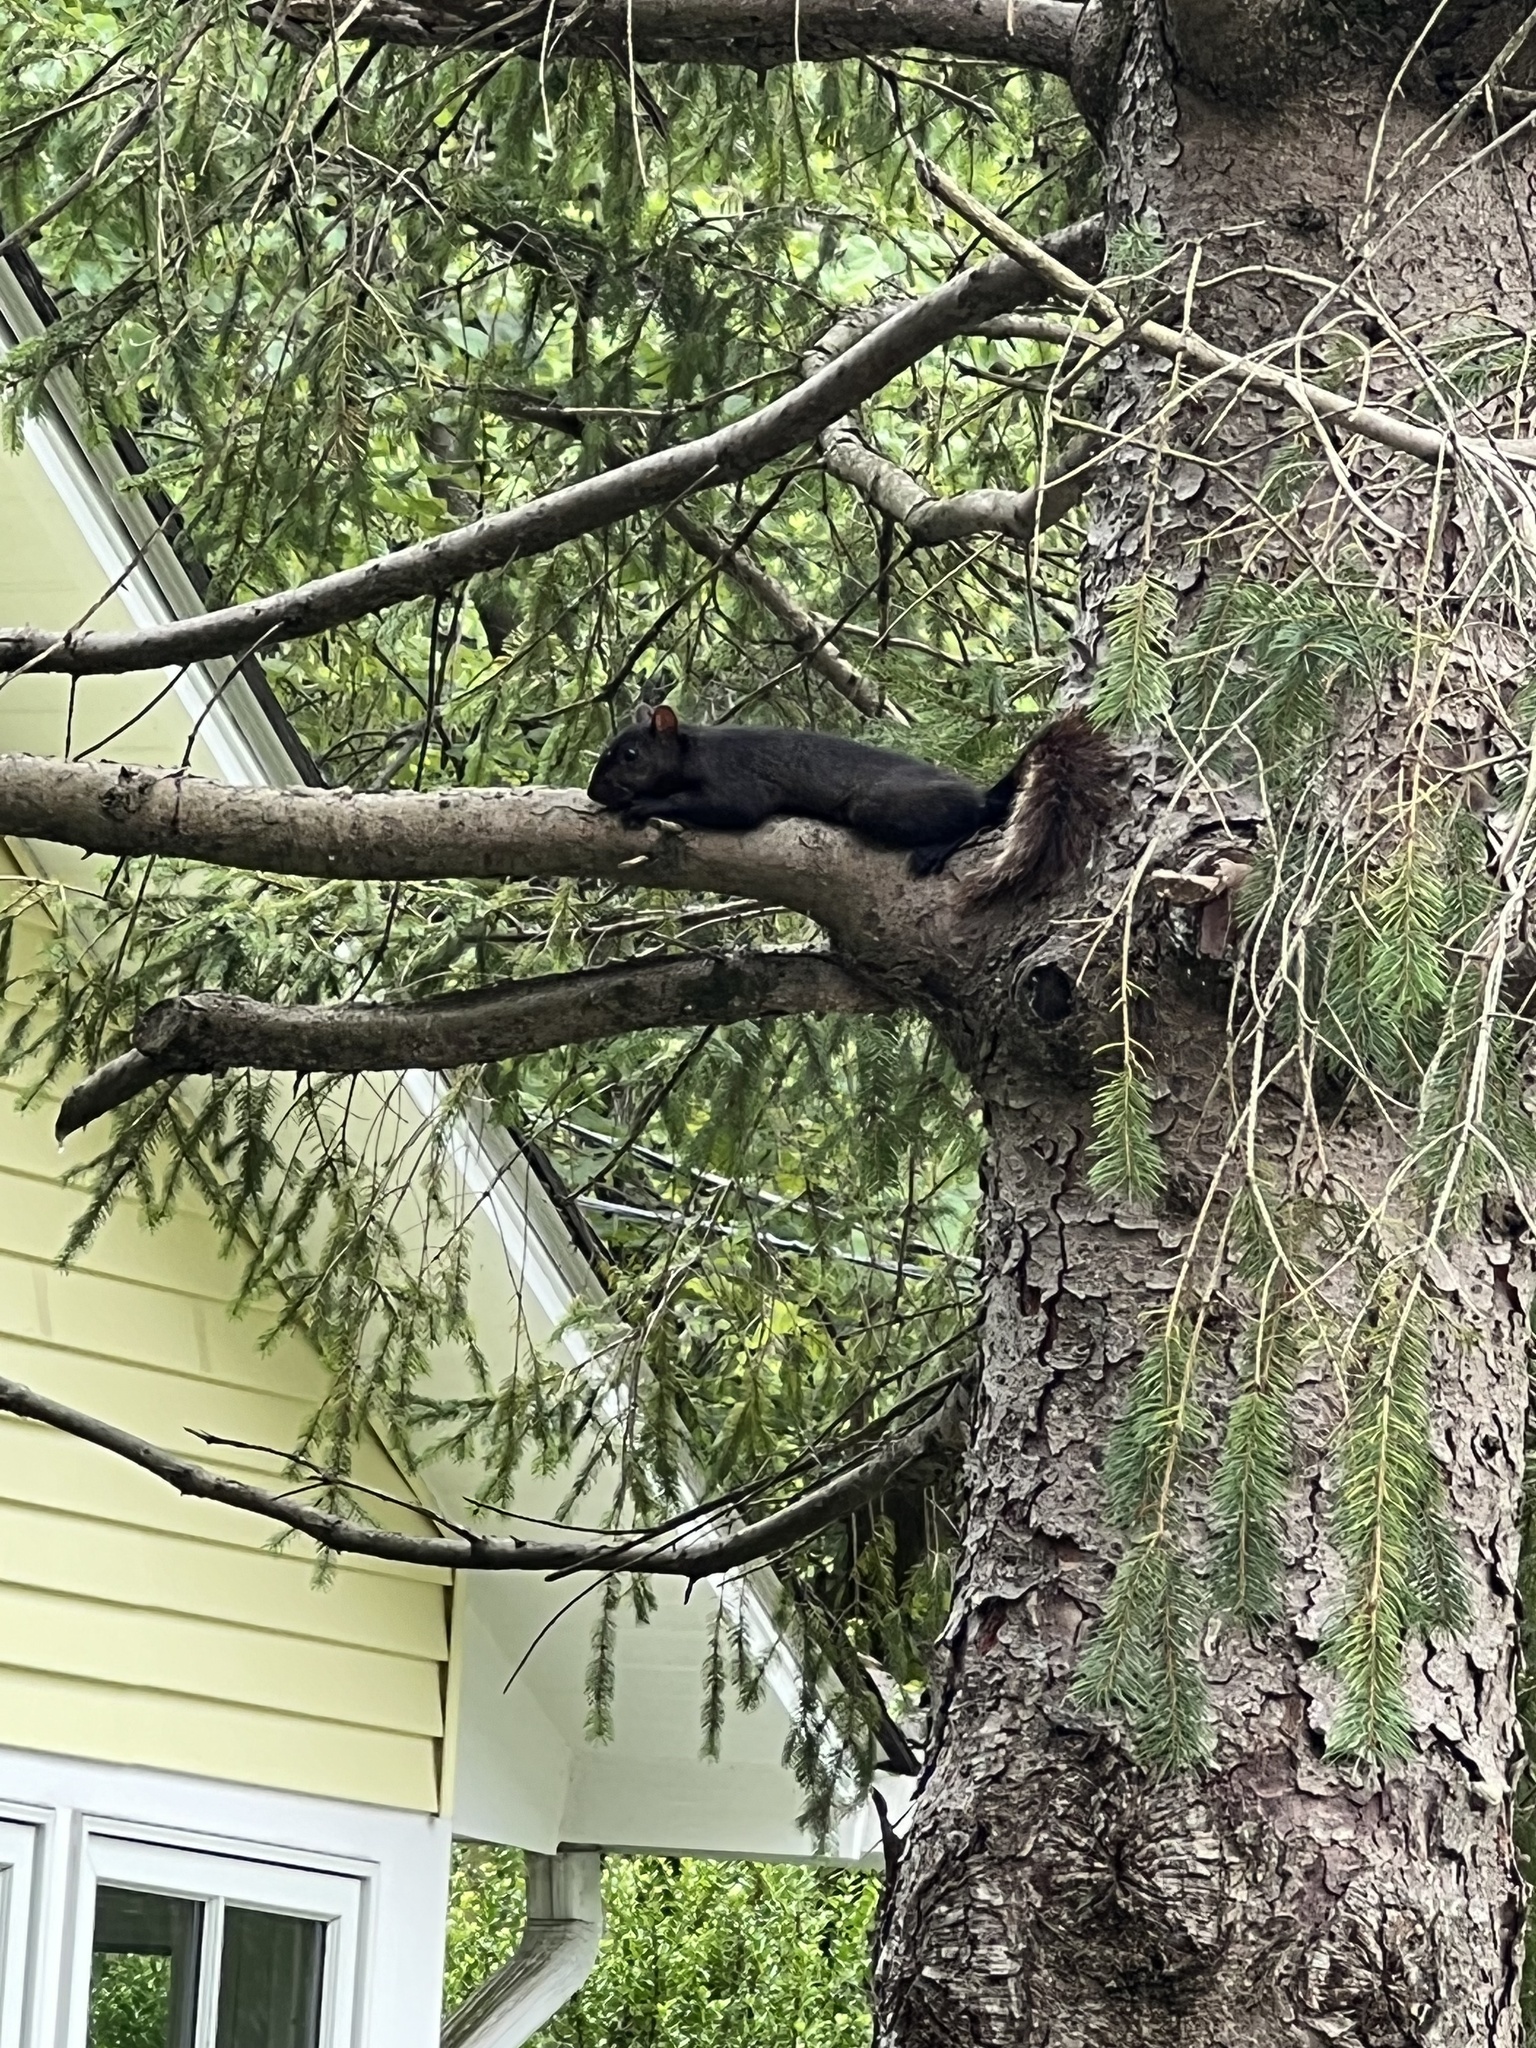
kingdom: Animalia
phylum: Chordata
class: Mammalia
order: Rodentia
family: Sciuridae
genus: Sciurus
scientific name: Sciurus carolinensis
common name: Eastern gray squirrel
